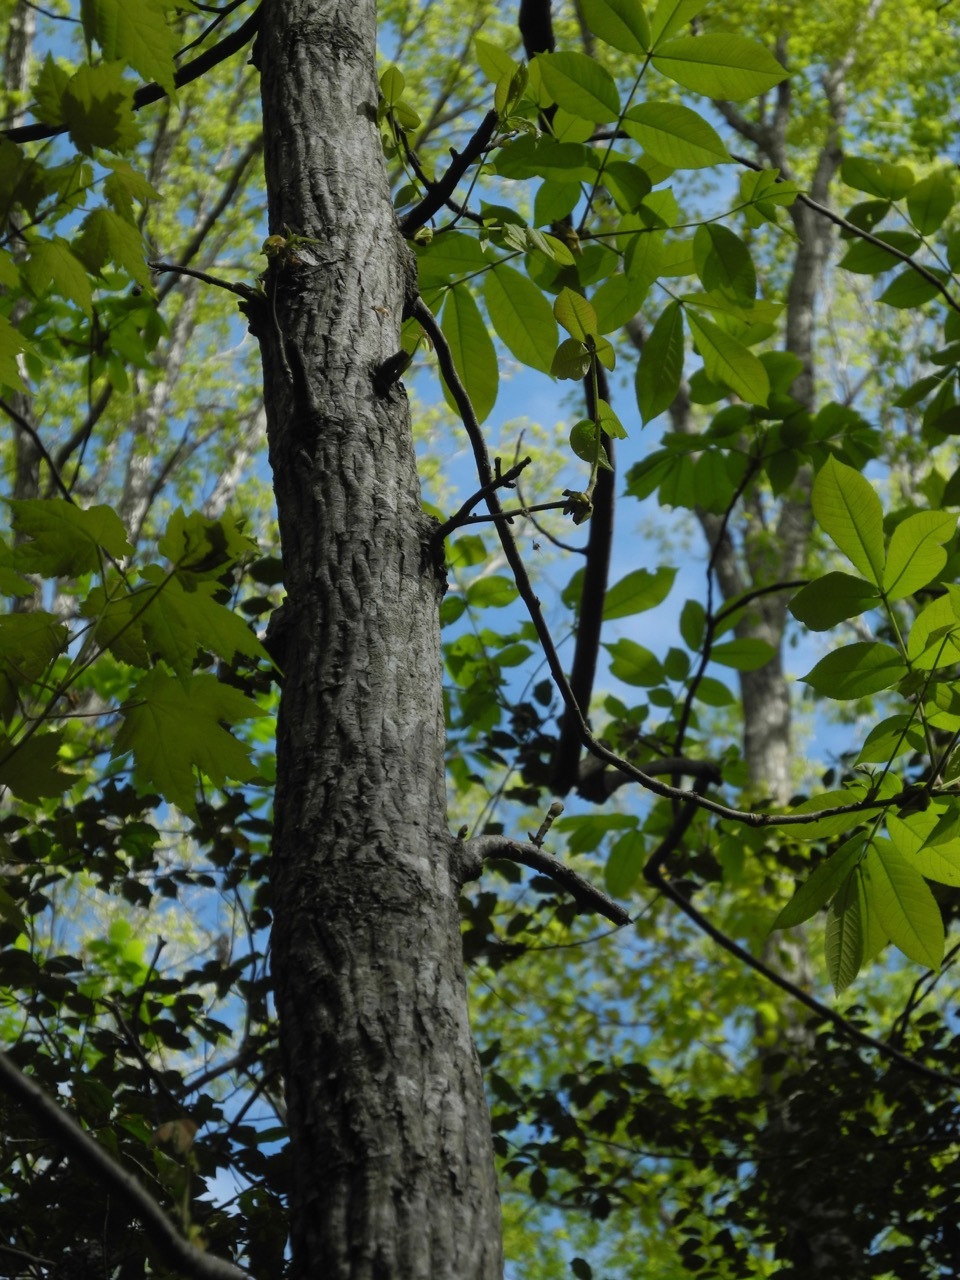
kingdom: Plantae
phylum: Tracheophyta
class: Magnoliopsida
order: Fagales
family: Juglandaceae
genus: Carya
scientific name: Carya alba
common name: Mockernut hickory
